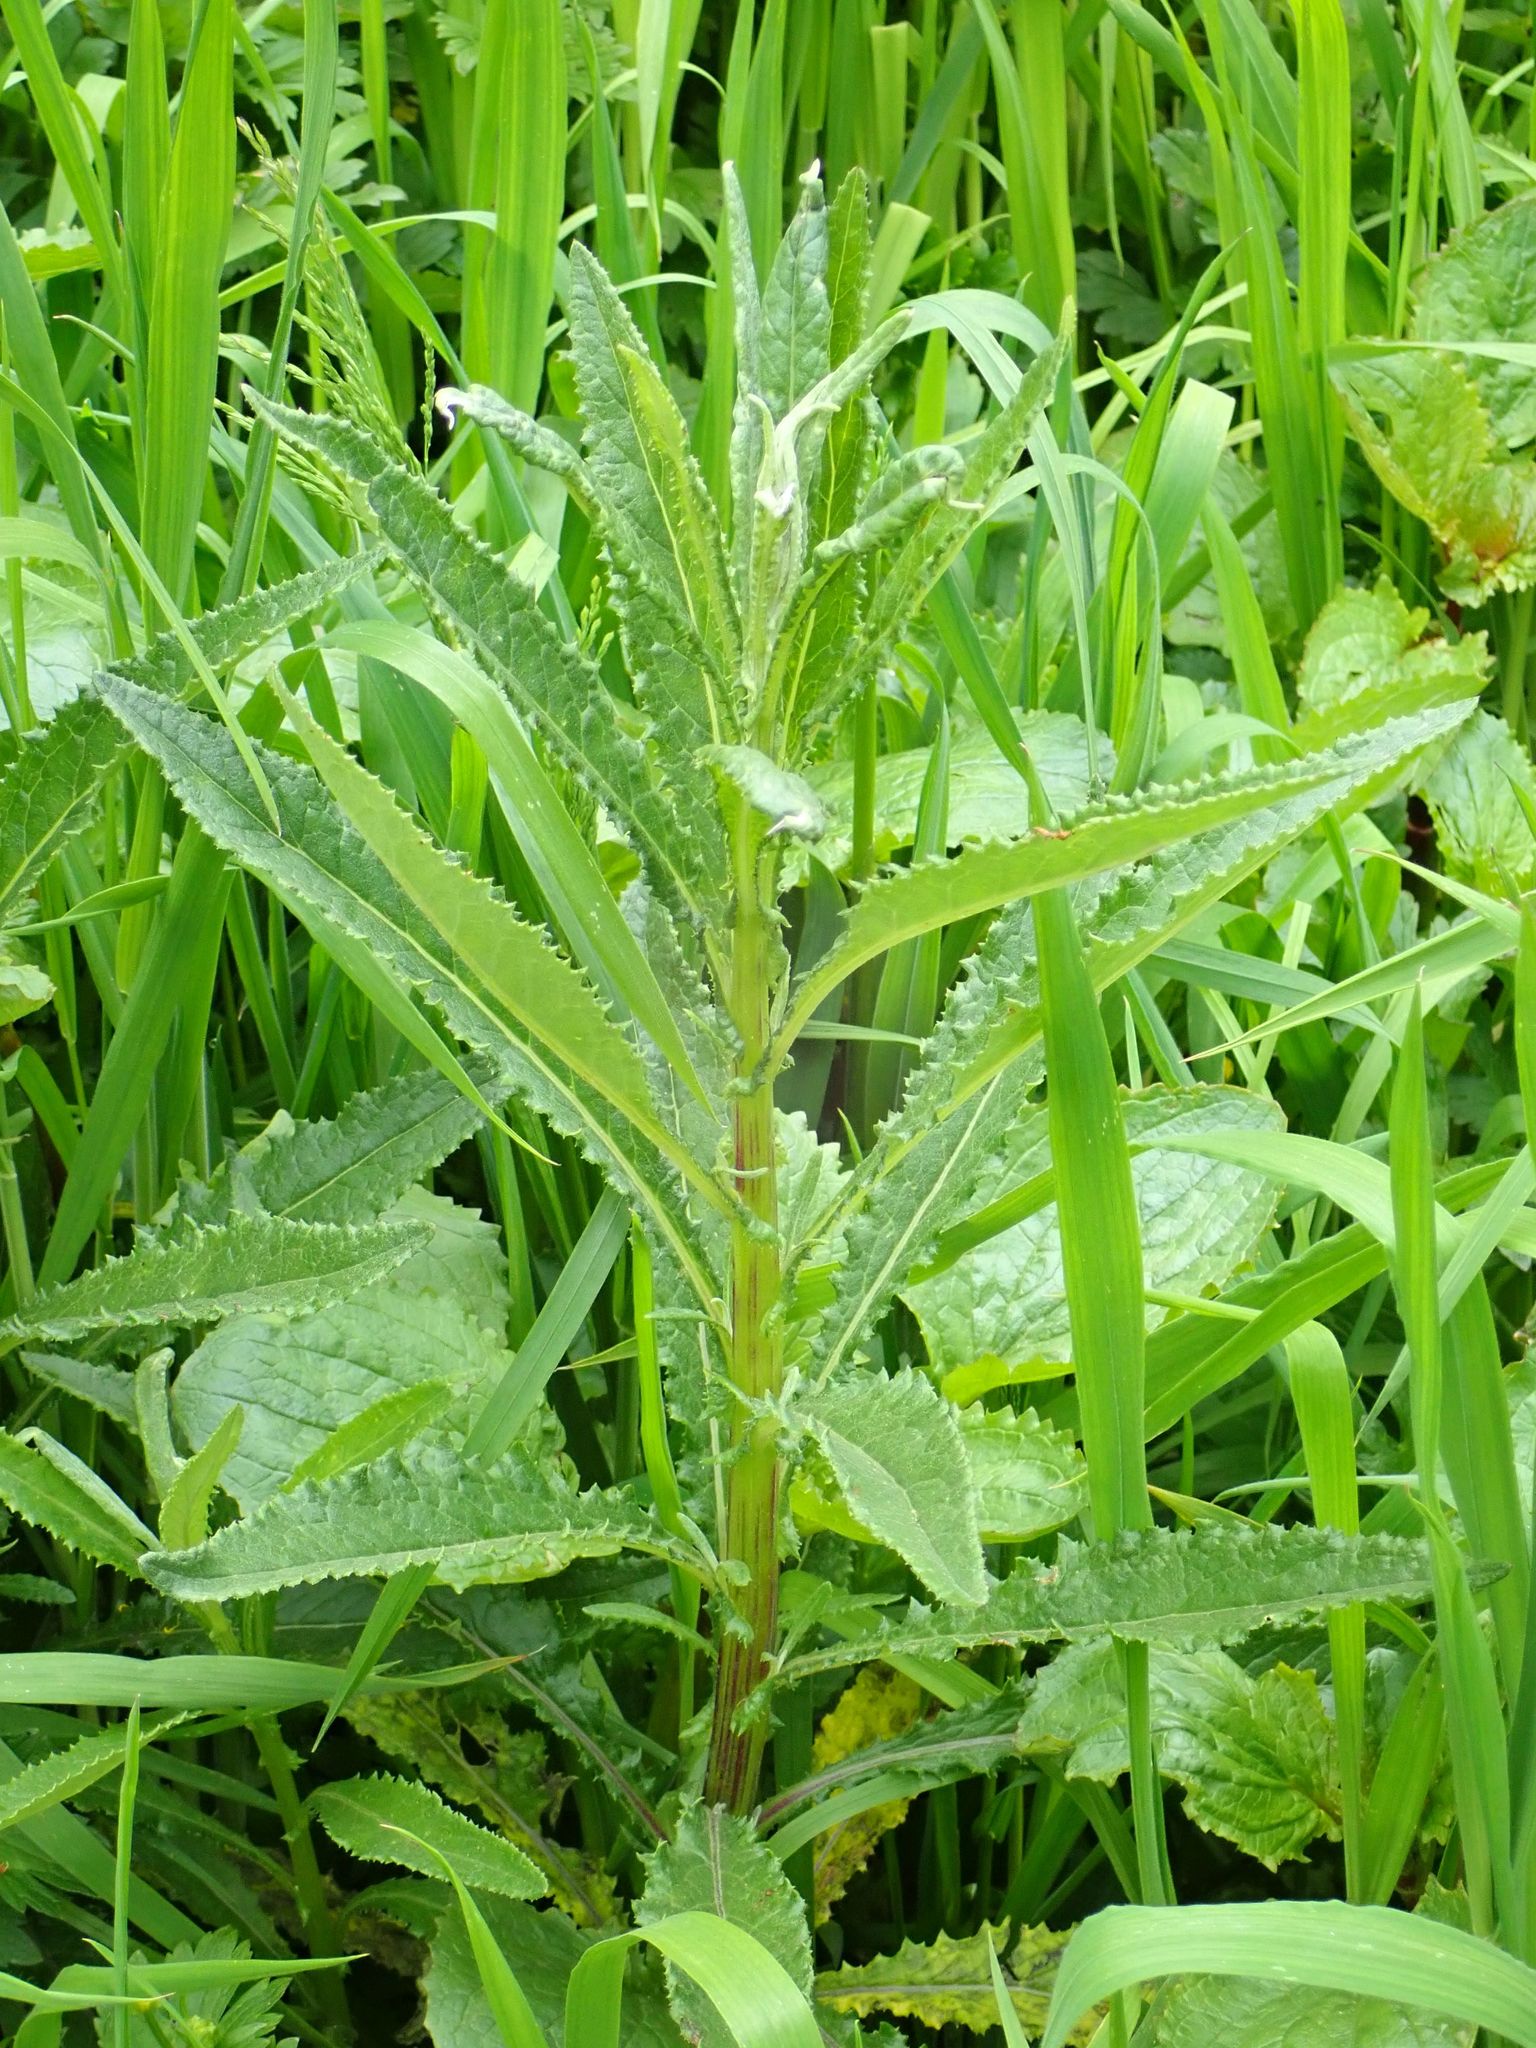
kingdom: Plantae
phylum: Tracheophyta
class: Magnoliopsida
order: Asterales
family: Asteraceae
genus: Senecio
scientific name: Senecio minimus
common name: Toothed fireweed
